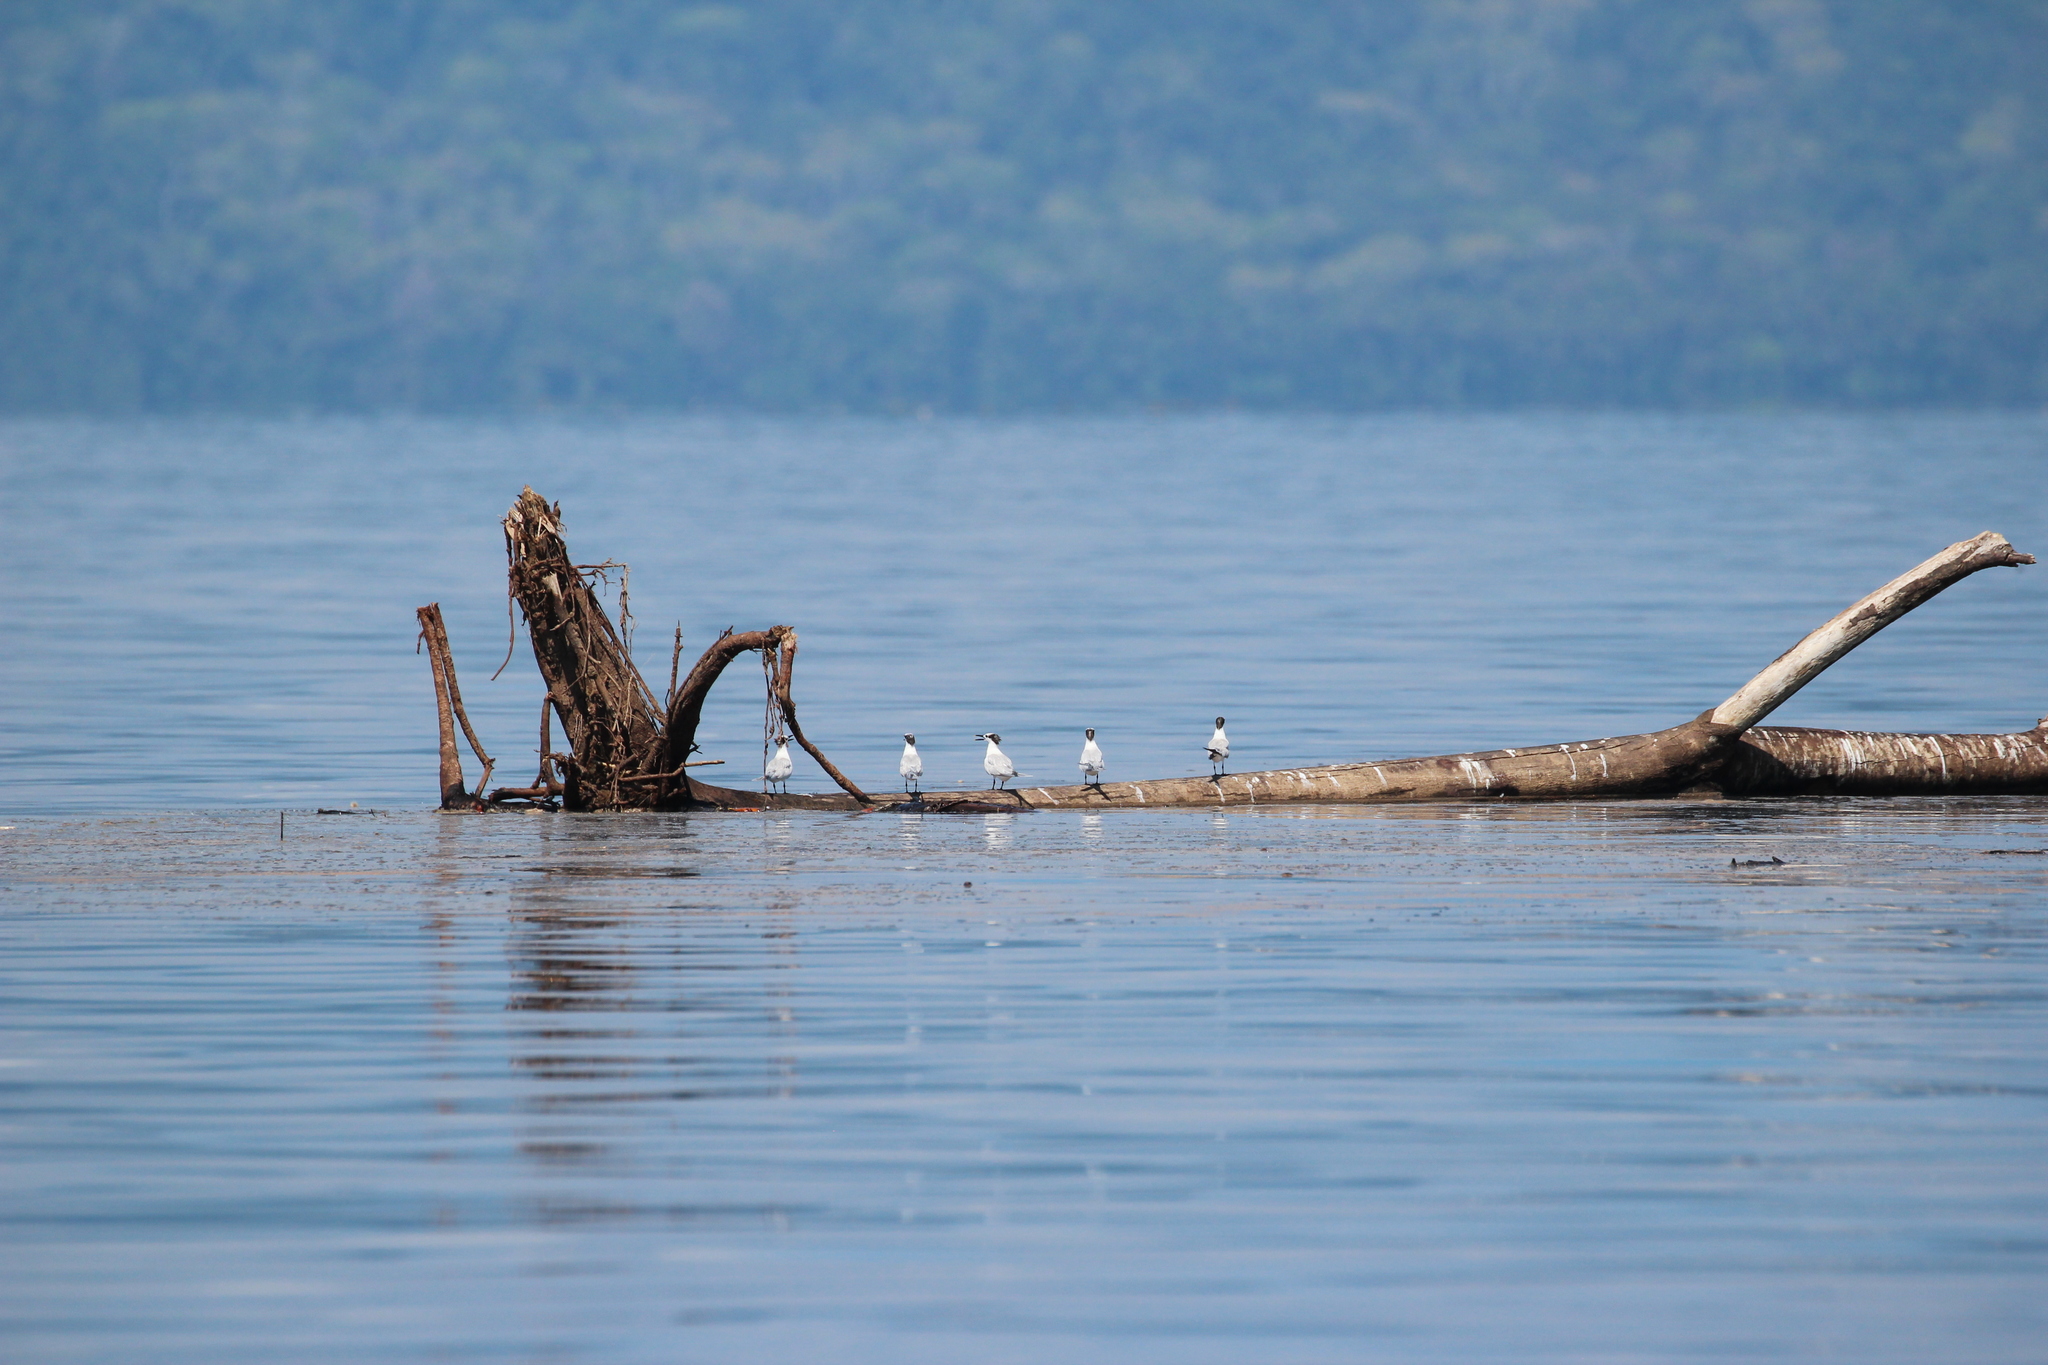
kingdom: Animalia
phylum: Chordata
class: Aves
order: Charadriiformes
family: Laridae
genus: Thalasseus
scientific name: Thalasseus sandvicensis
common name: Sandwich tern
